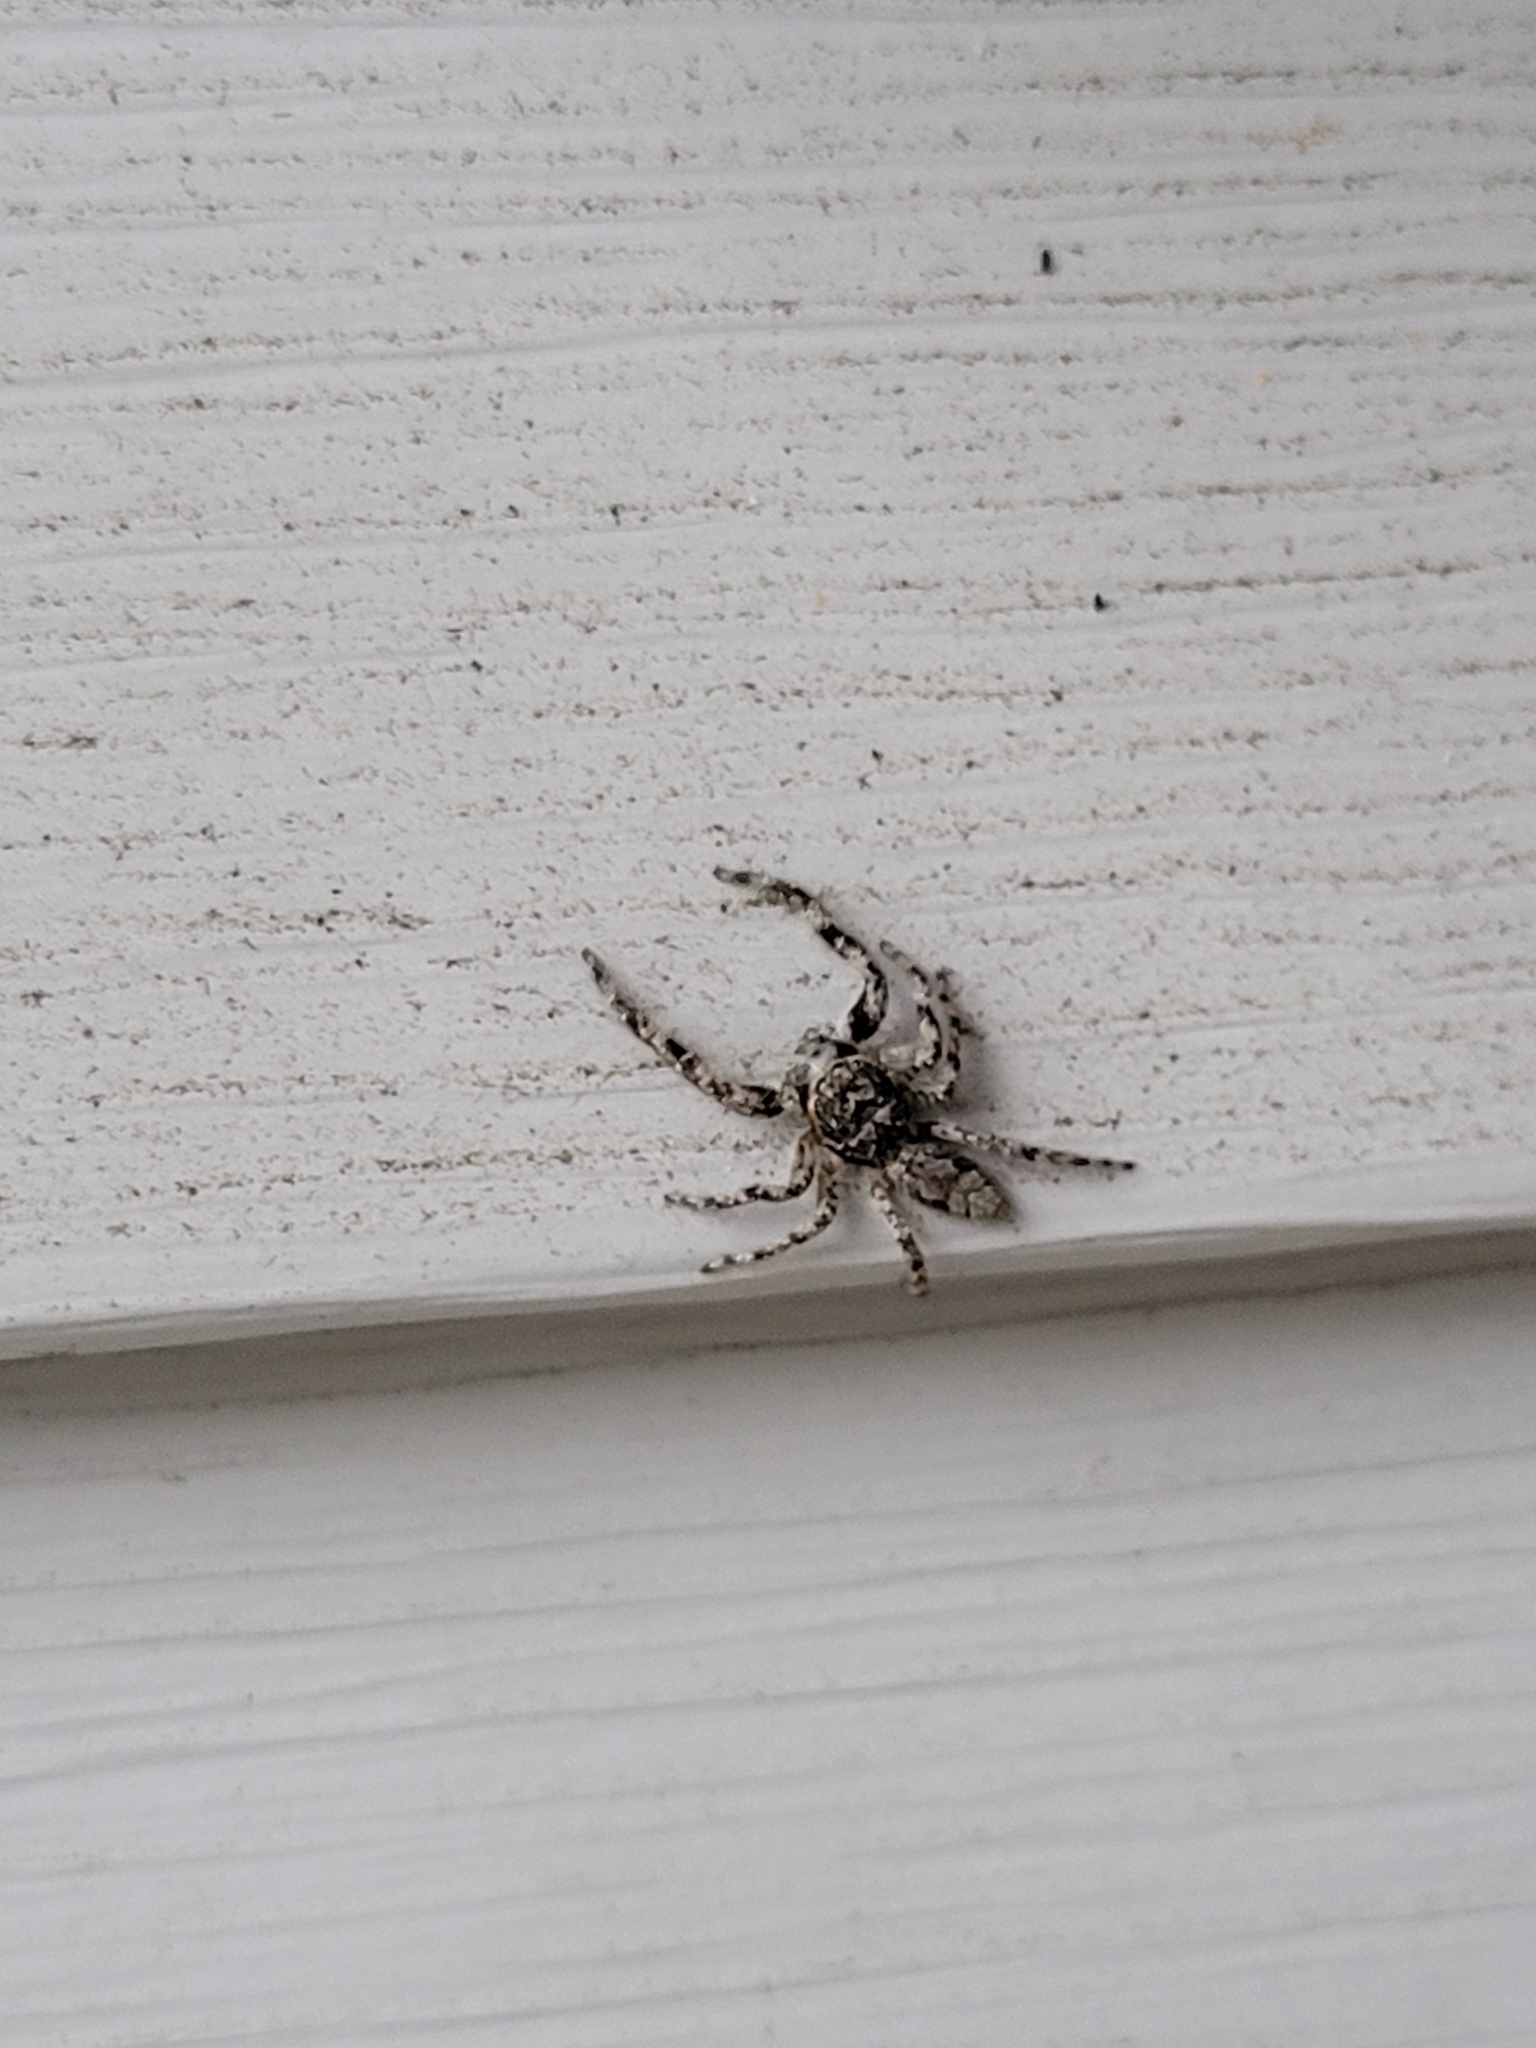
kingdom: Animalia
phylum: Arthropoda
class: Arachnida
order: Araneae
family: Salticidae
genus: Platycryptus
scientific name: Platycryptus undatus
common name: Tan jumping spider
